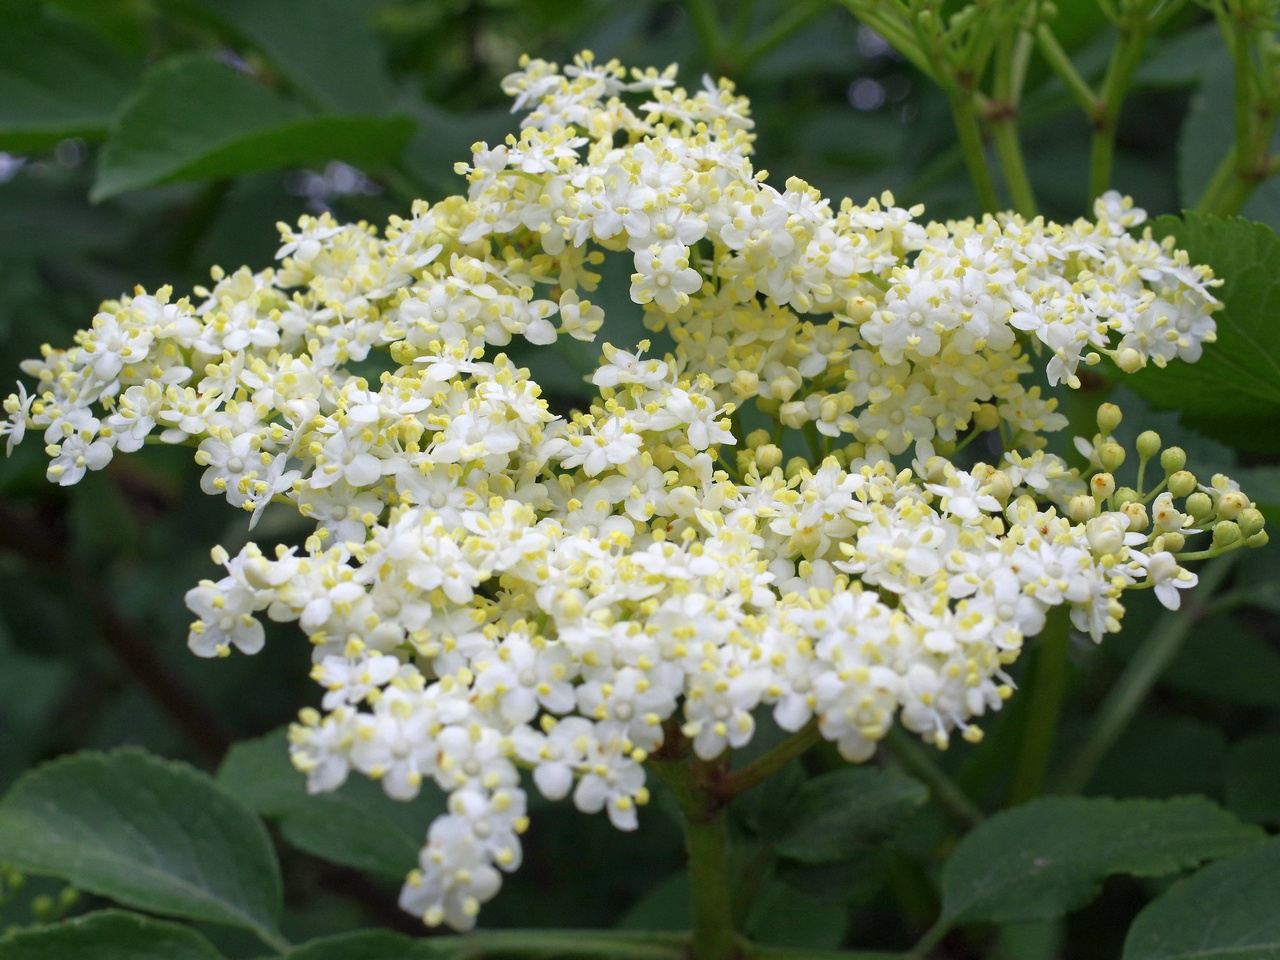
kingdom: Plantae
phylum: Tracheophyta
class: Magnoliopsida
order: Dipsacales
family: Viburnaceae
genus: Sambucus
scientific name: Sambucus nigra
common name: Elder
